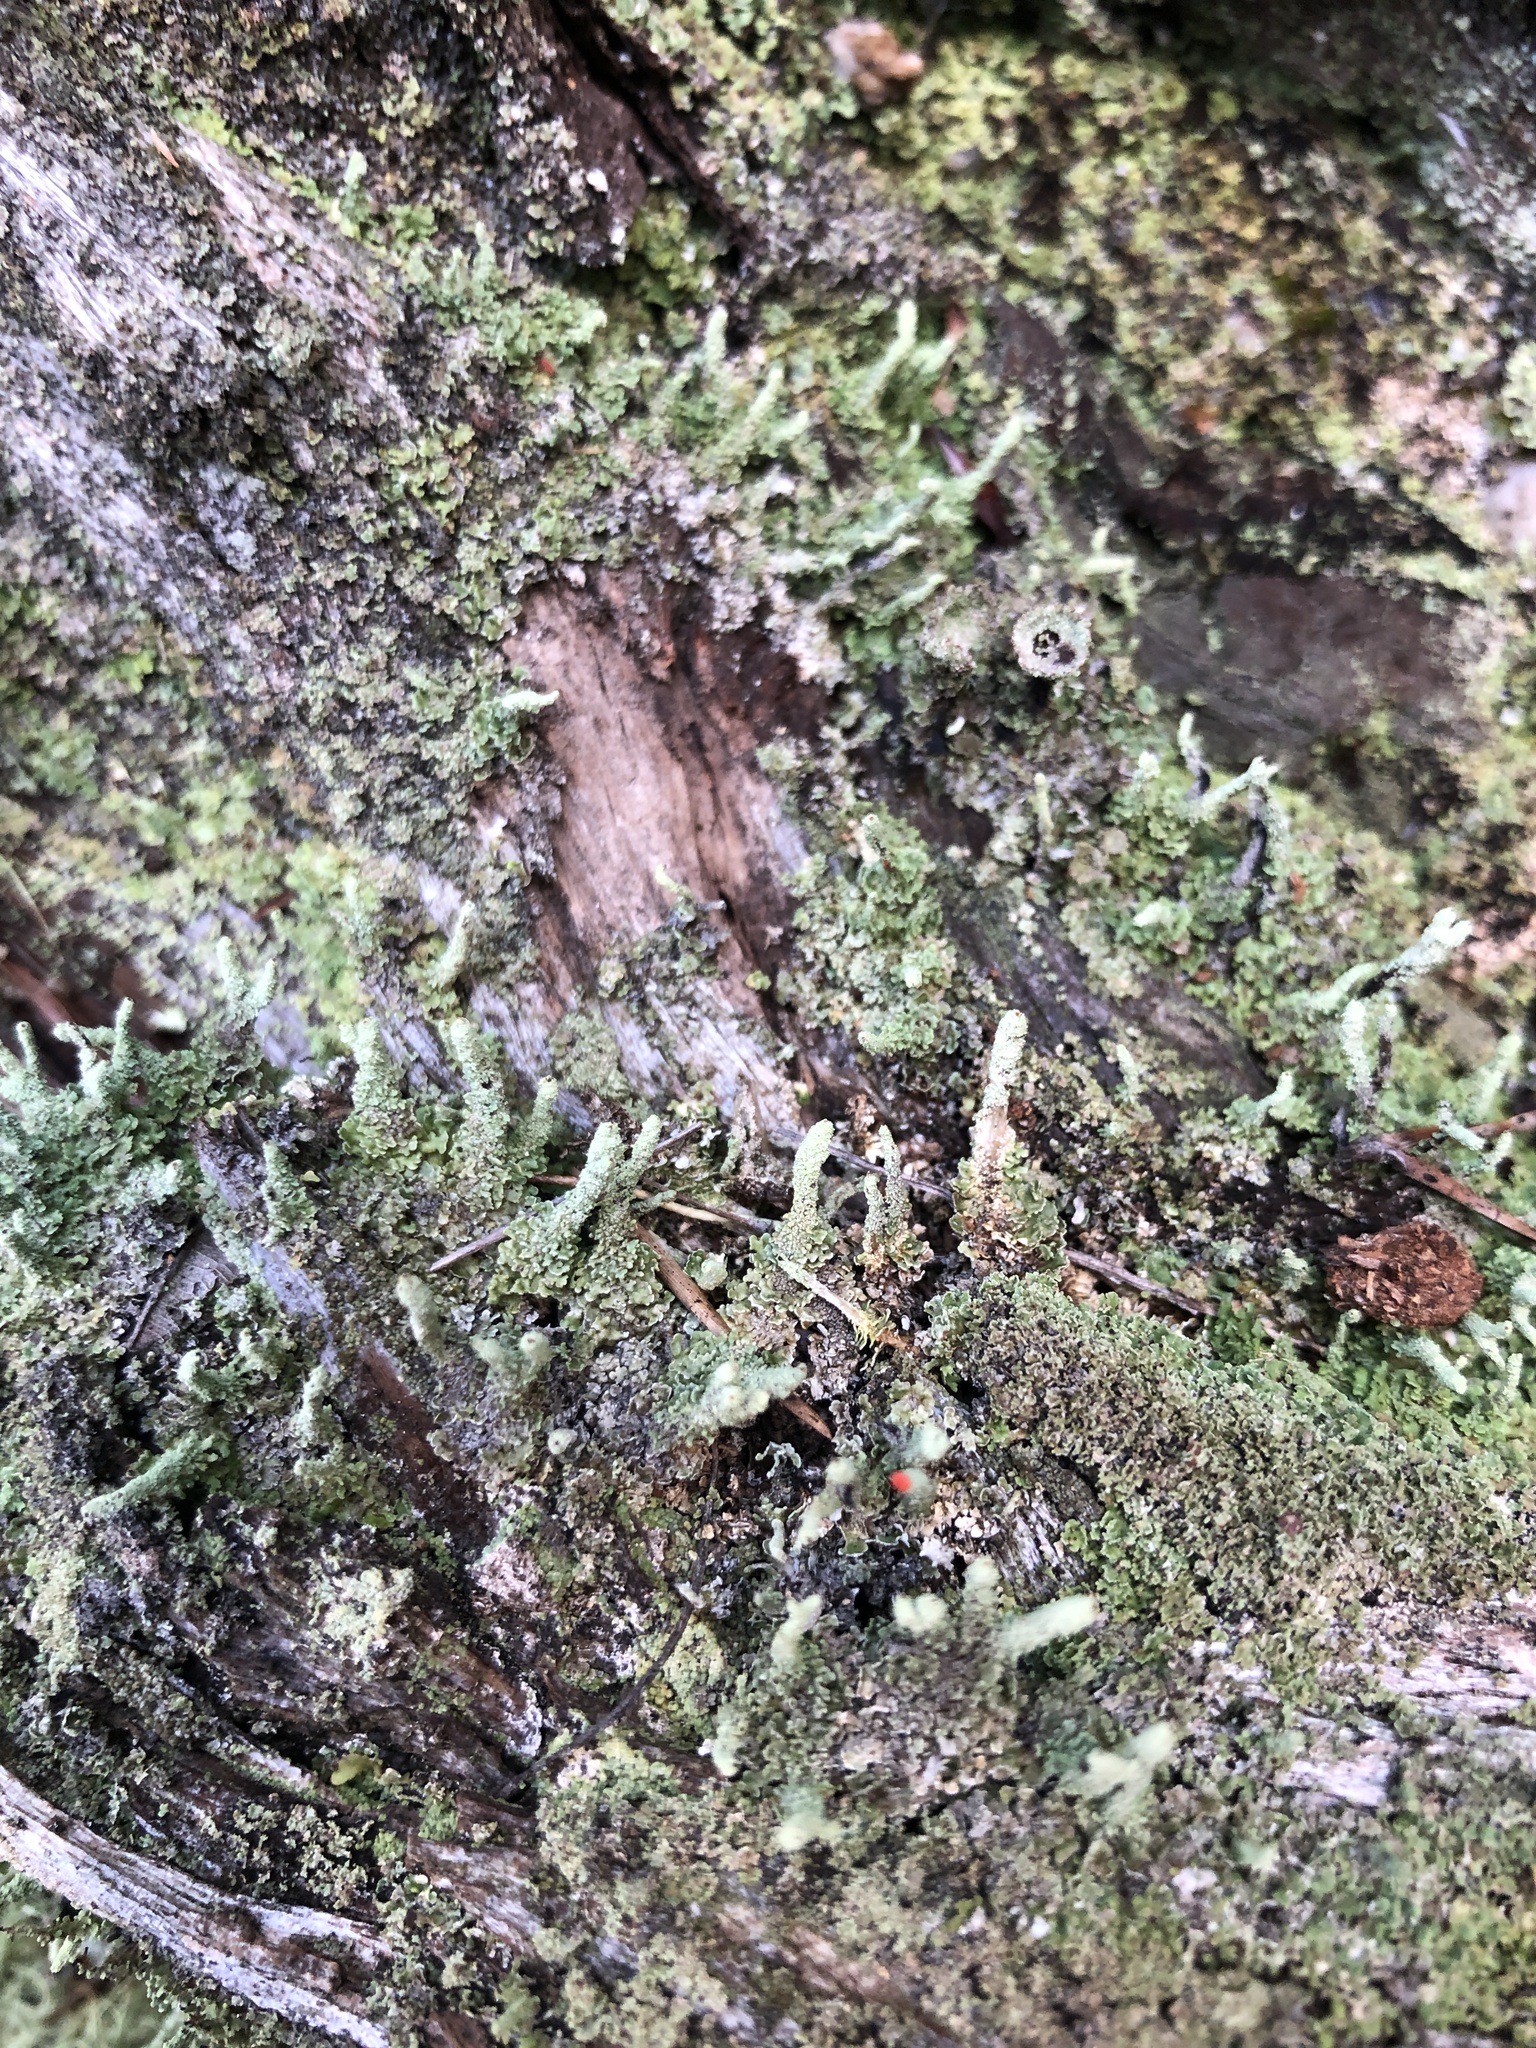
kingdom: Fungi
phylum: Ascomycota
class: Lecanoromycetes
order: Lecanorales
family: Cladoniaceae
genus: Cladonia
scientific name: Cladonia macilenta
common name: Lipstick powderhorn
